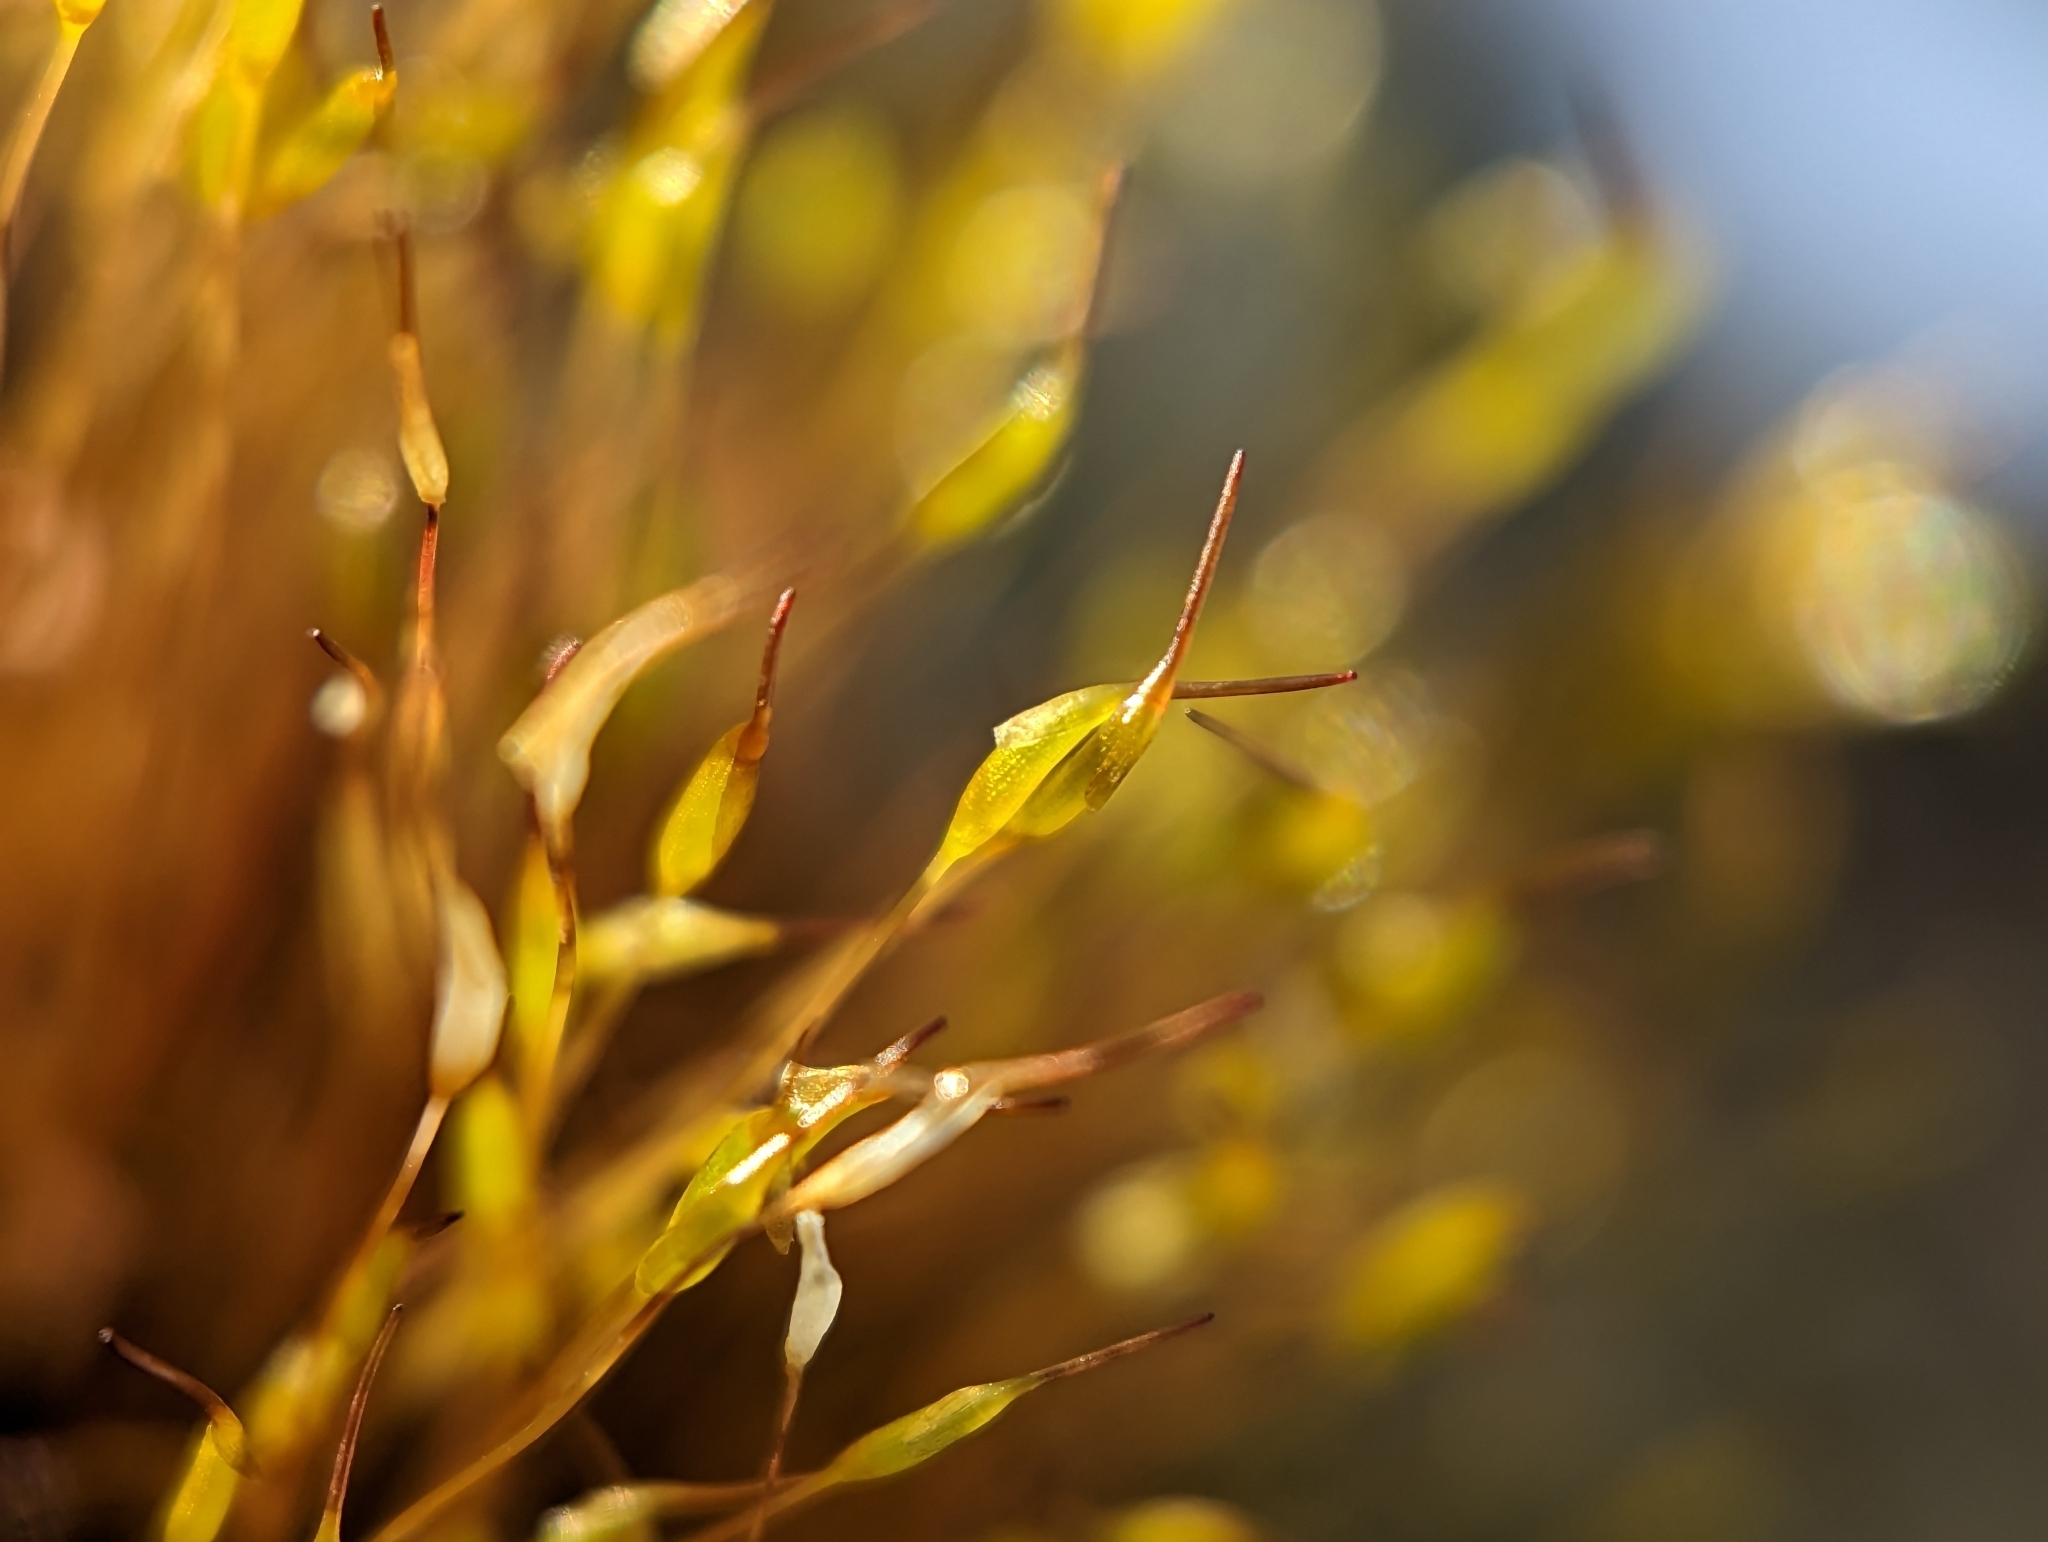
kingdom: Plantae
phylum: Bryophyta
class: Bryopsida
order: Dicranales
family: Ditrichaceae
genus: Ceratodon
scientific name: Ceratodon purpureus
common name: Redshank
